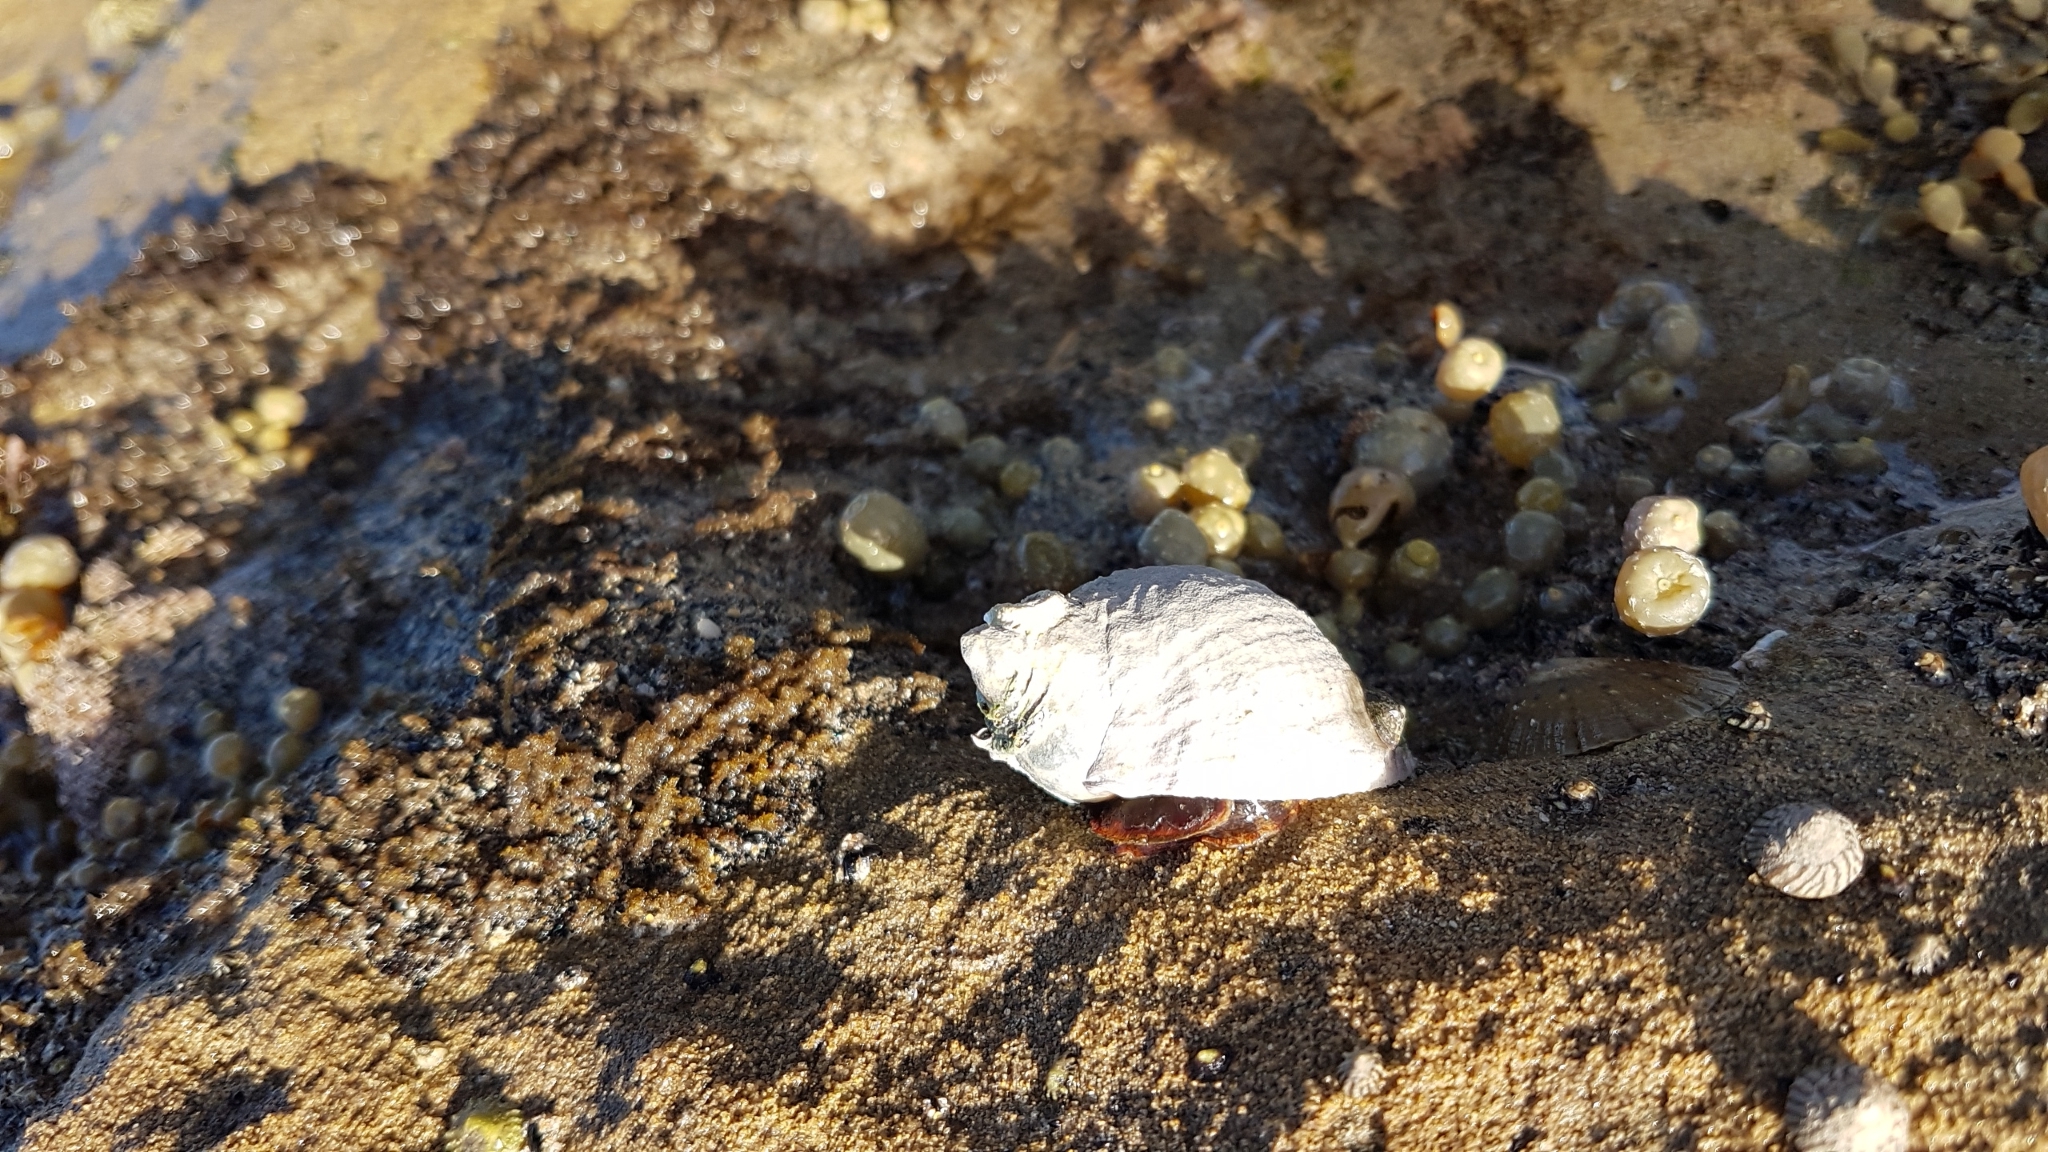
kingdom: Animalia
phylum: Mollusca
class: Gastropoda
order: Neogastropoda
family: Muricidae
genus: Dicathais
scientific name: Dicathais orbita
